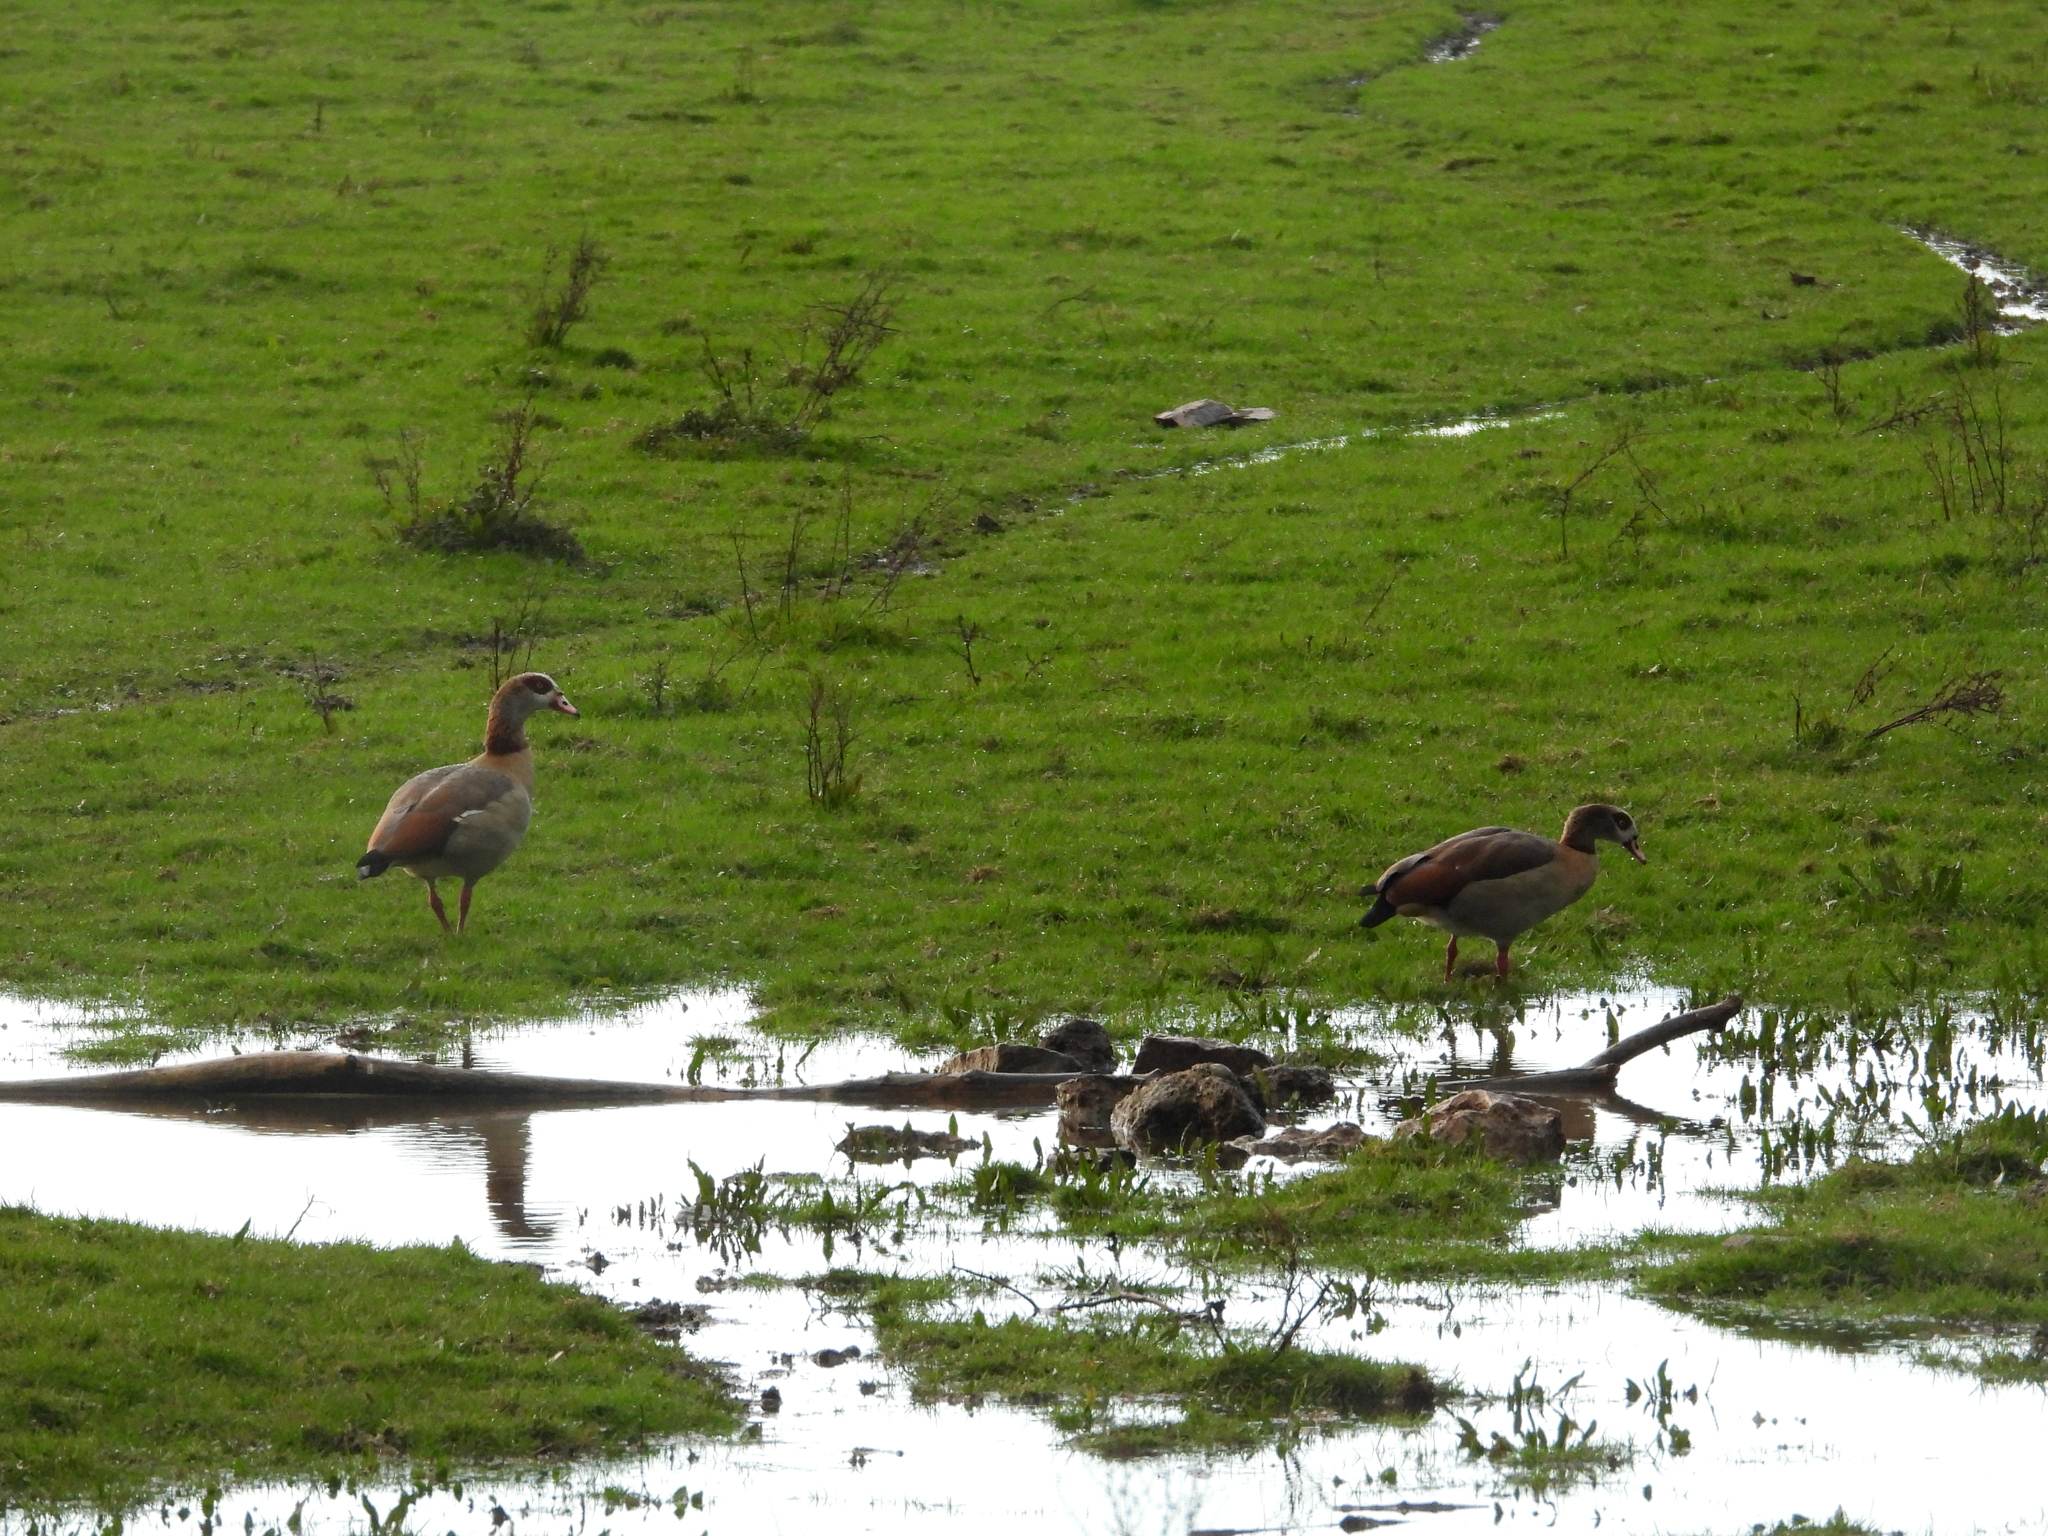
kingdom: Animalia
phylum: Chordata
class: Aves
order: Anseriformes
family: Anatidae
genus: Alopochen
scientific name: Alopochen aegyptiaca
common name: Egyptian goose
